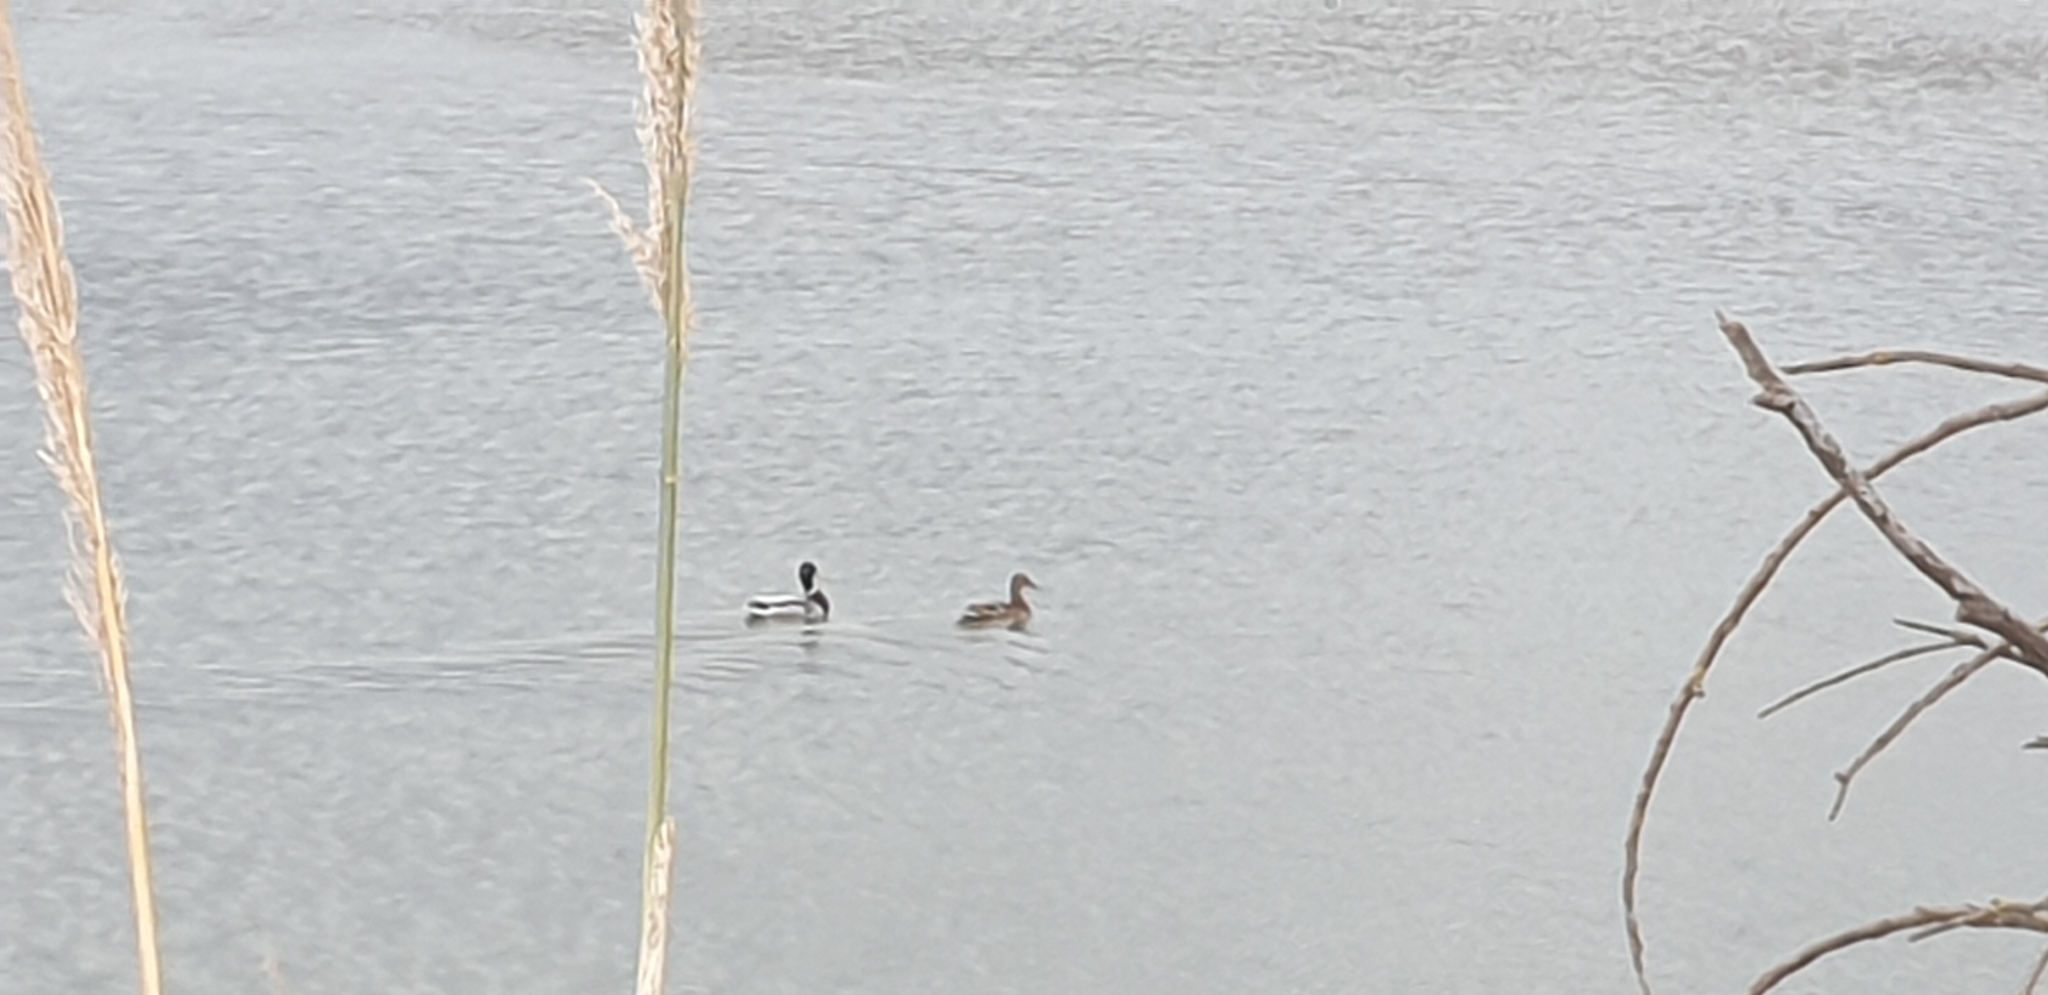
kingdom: Animalia
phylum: Chordata
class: Aves
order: Anseriformes
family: Anatidae
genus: Anas
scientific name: Anas platyrhynchos
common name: Mallard
